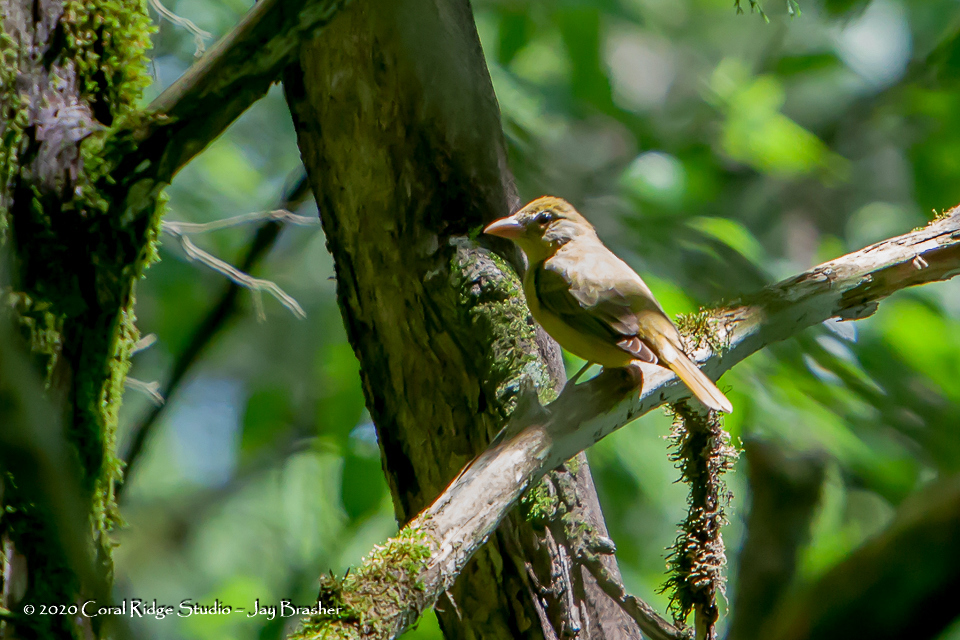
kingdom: Animalia
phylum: Chordata
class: Aves
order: Passeriformes
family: Cardinalidae
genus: Piranga
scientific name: Piranga rubra
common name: Summer tanager
